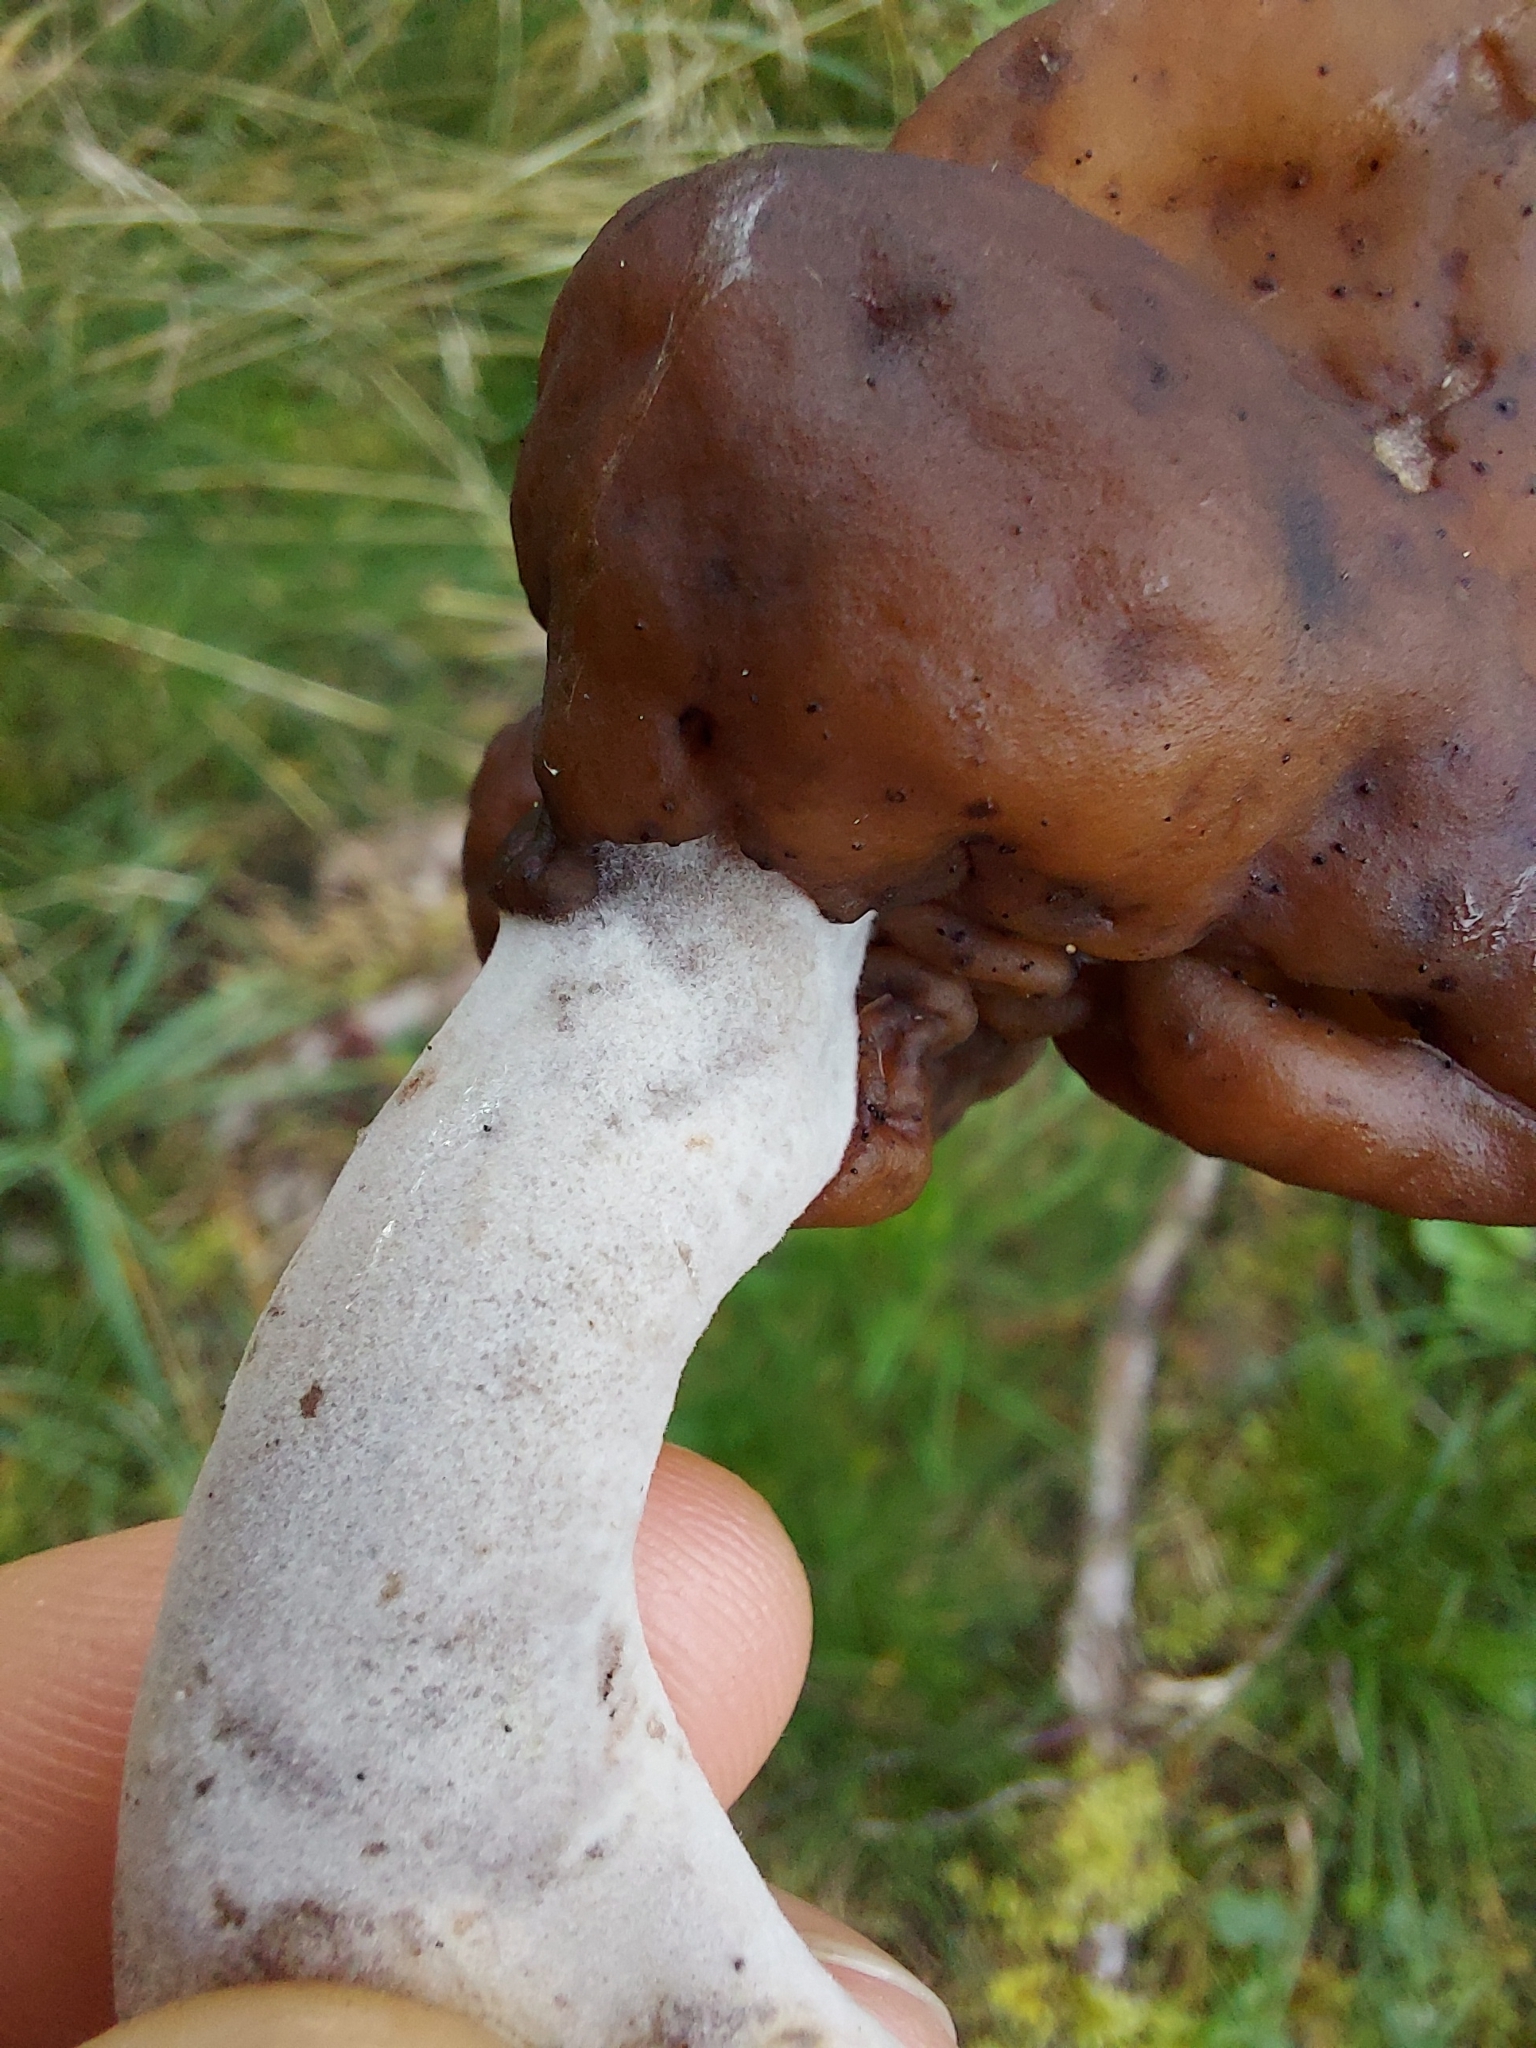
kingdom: Fungi
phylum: Ascomycota
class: Pezizomycetes
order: Pezizales
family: Discinaceae
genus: Gyromitra
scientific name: Gyromitra infula
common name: Pouched false morel
